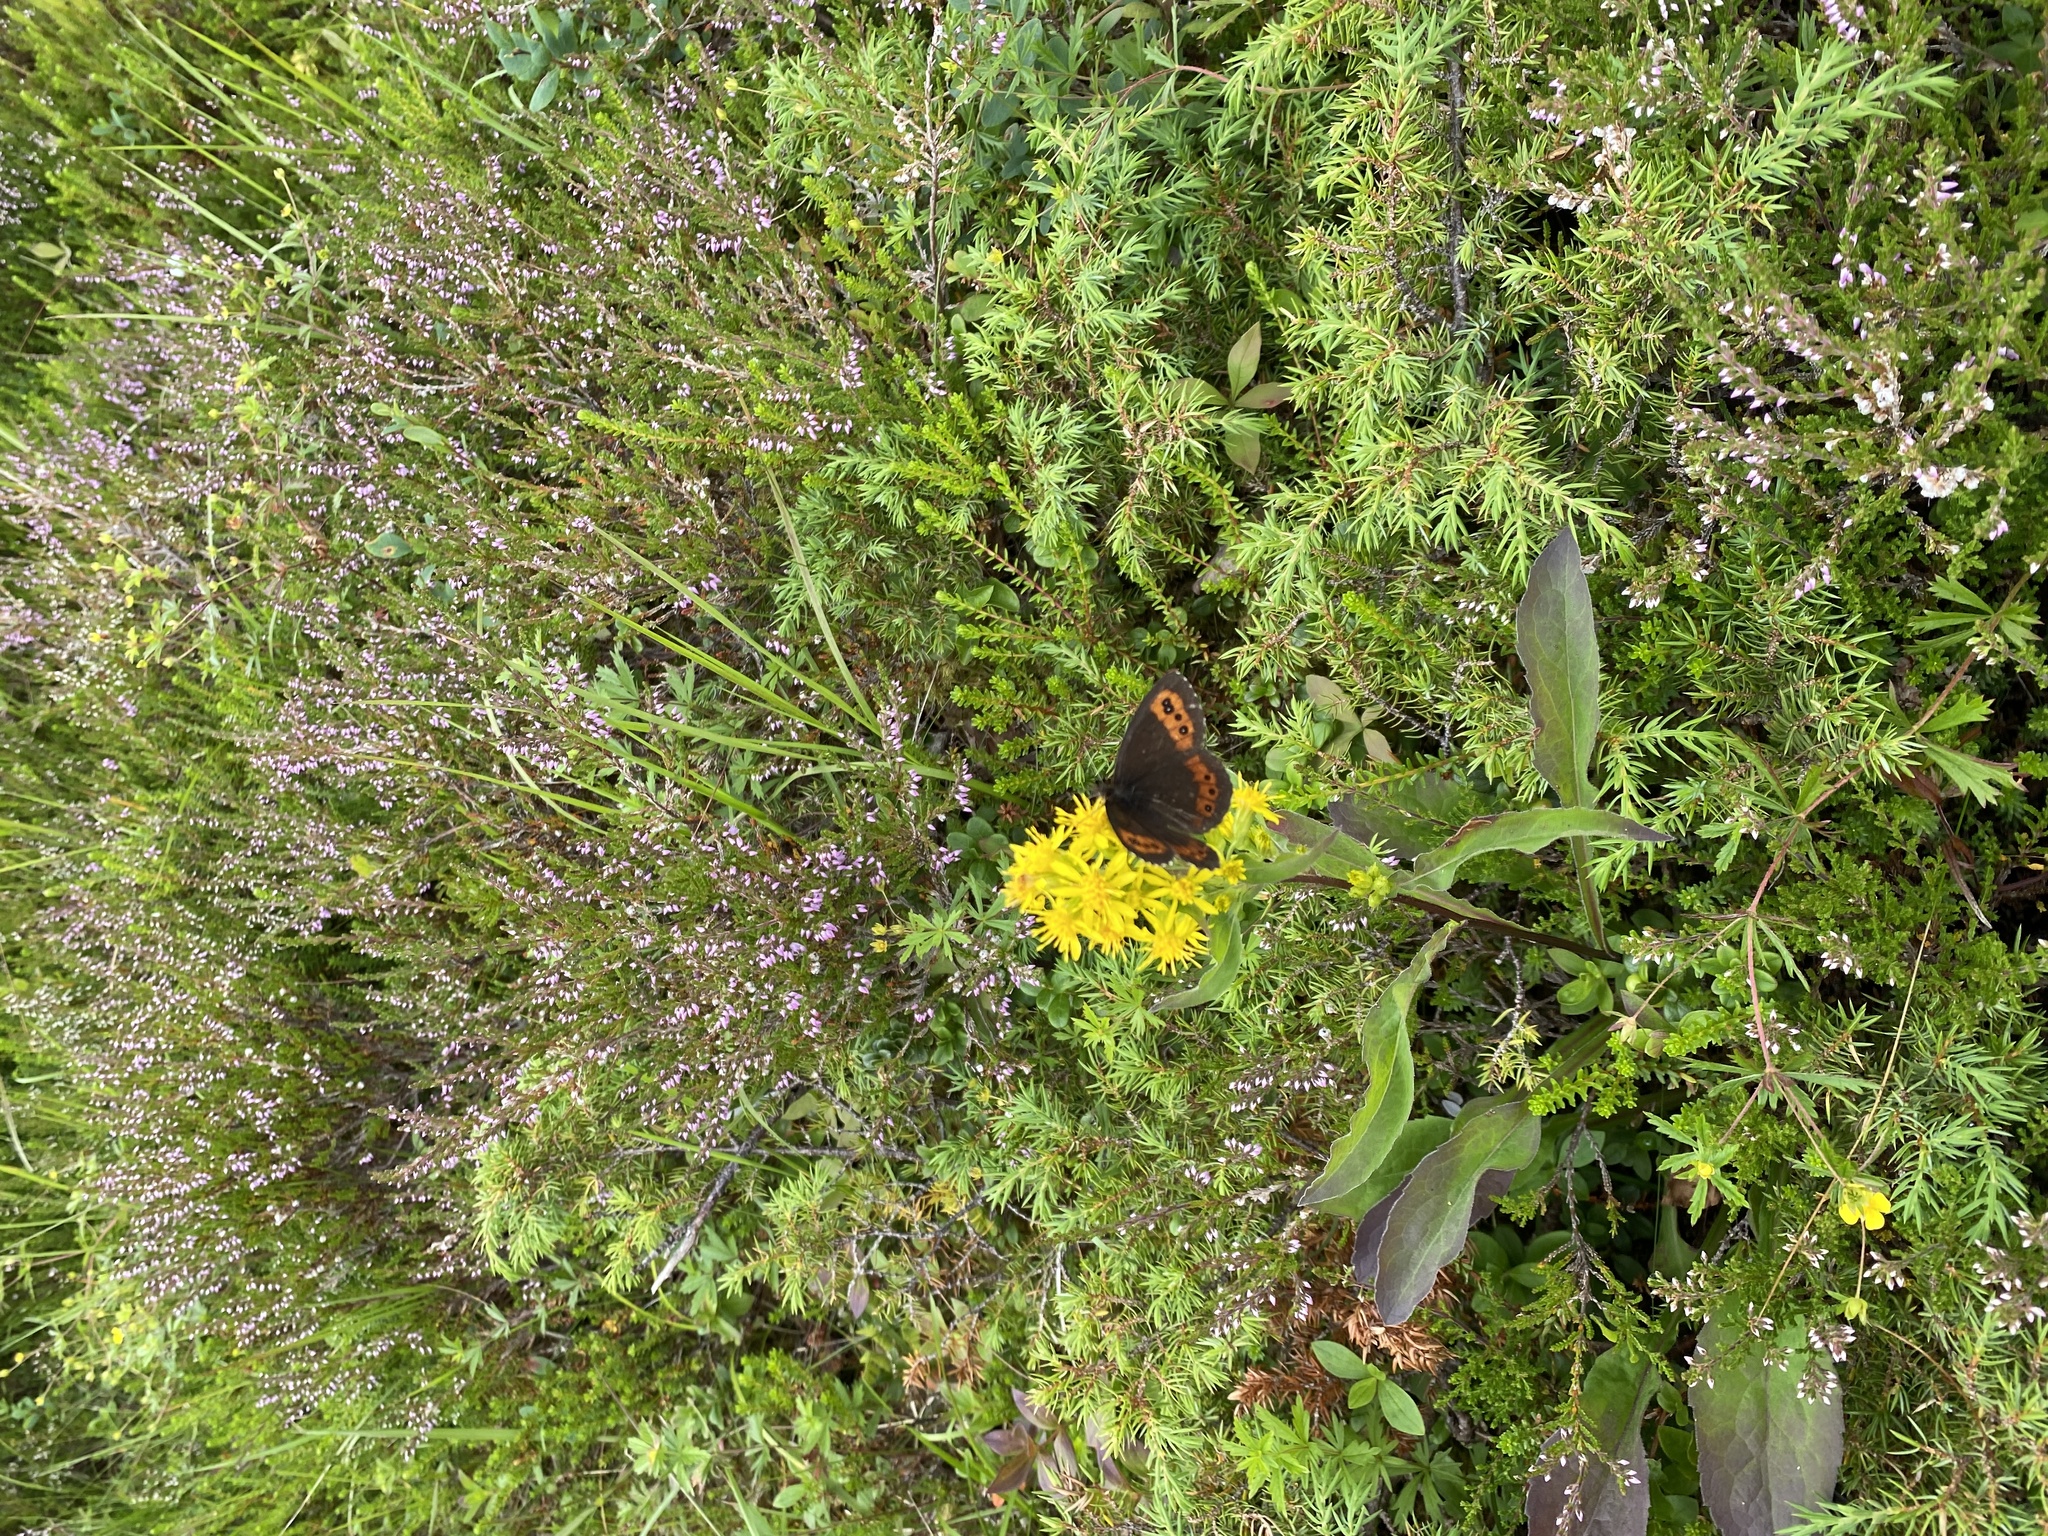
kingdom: Animalia
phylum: Arthropoda
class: Insecta
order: Lepidoptera
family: Nymphalidae
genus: Erebia
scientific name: Erebia ligea
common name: Arran brown
